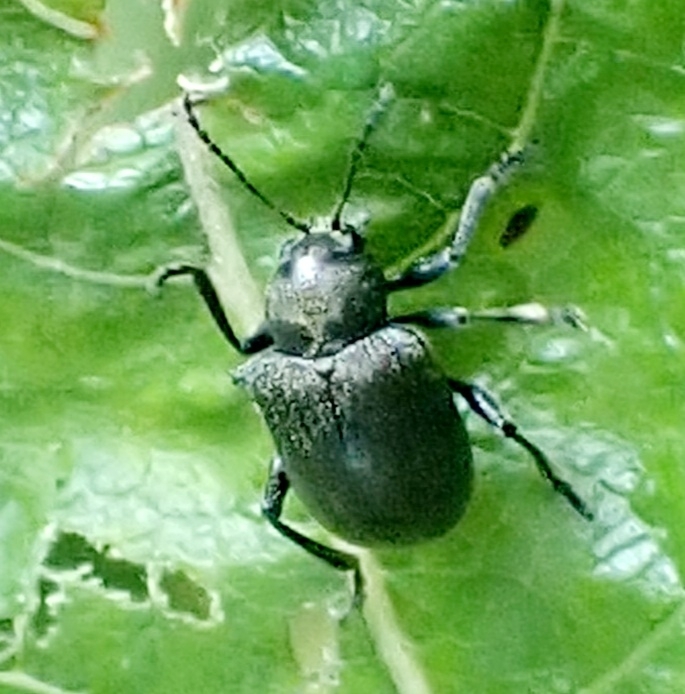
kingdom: Animalia
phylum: Arthropoda
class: Insecta
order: Coleoptera
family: Chrysomelidae
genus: Bromius
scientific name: Bromius obscurus
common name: Western grape rootworm
